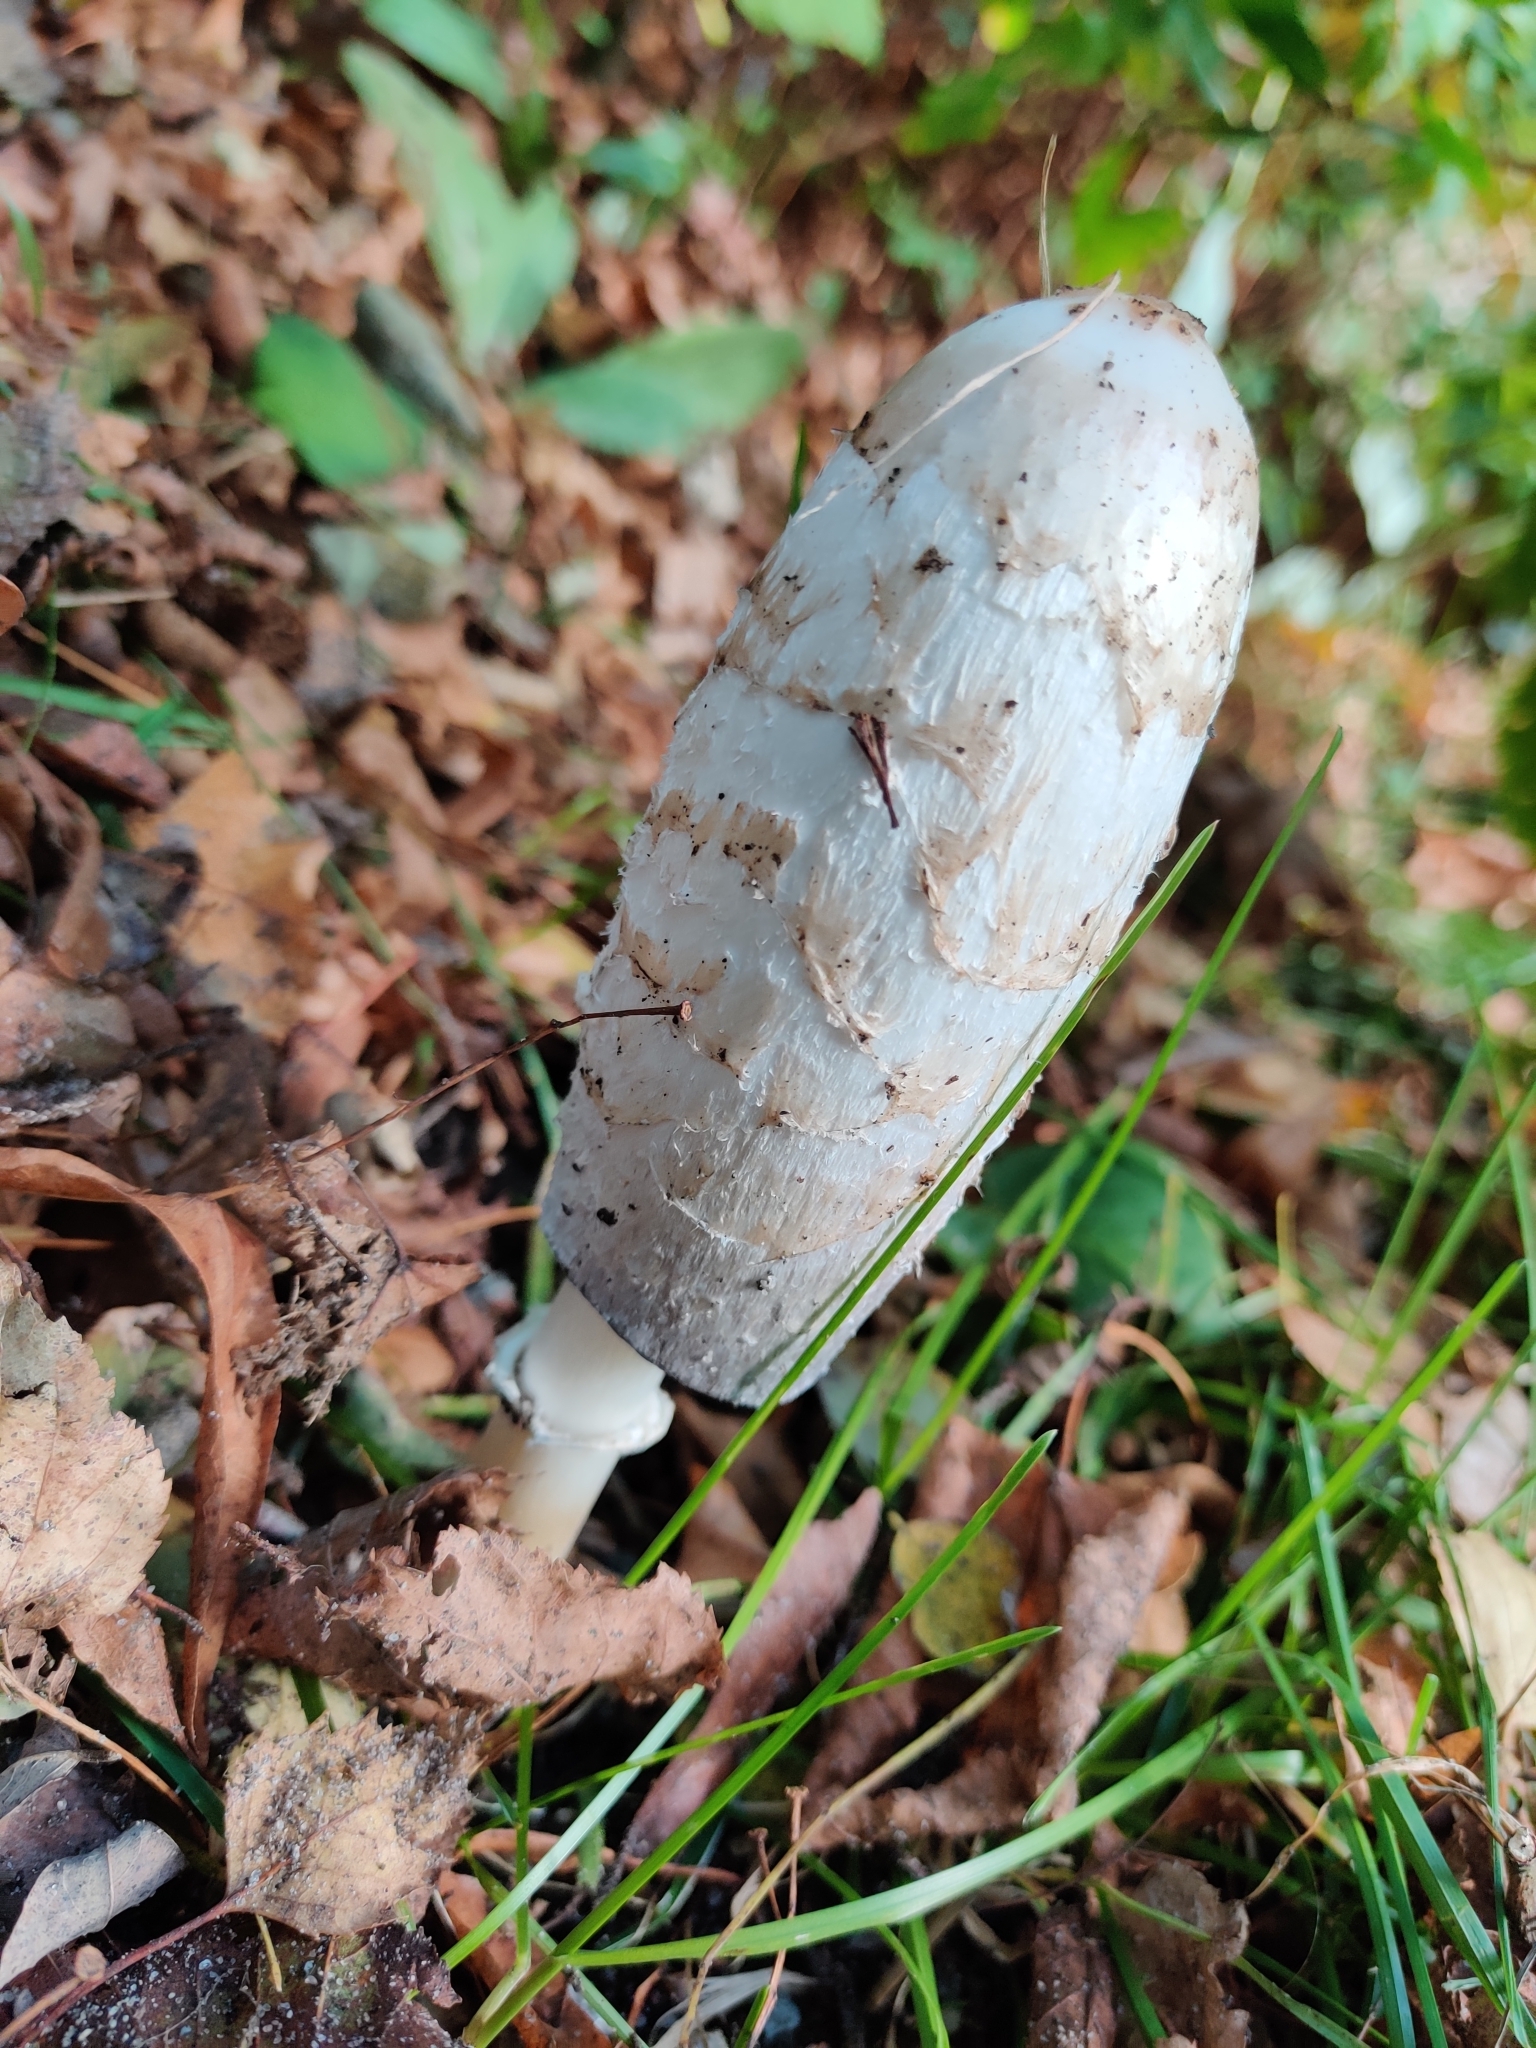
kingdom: Fungi
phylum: Basidiomycota
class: Agaricomycetes
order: Agaricales
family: Agaricaceae
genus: Coprinus
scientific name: Coprinus comatus
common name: Lawyer's wig
